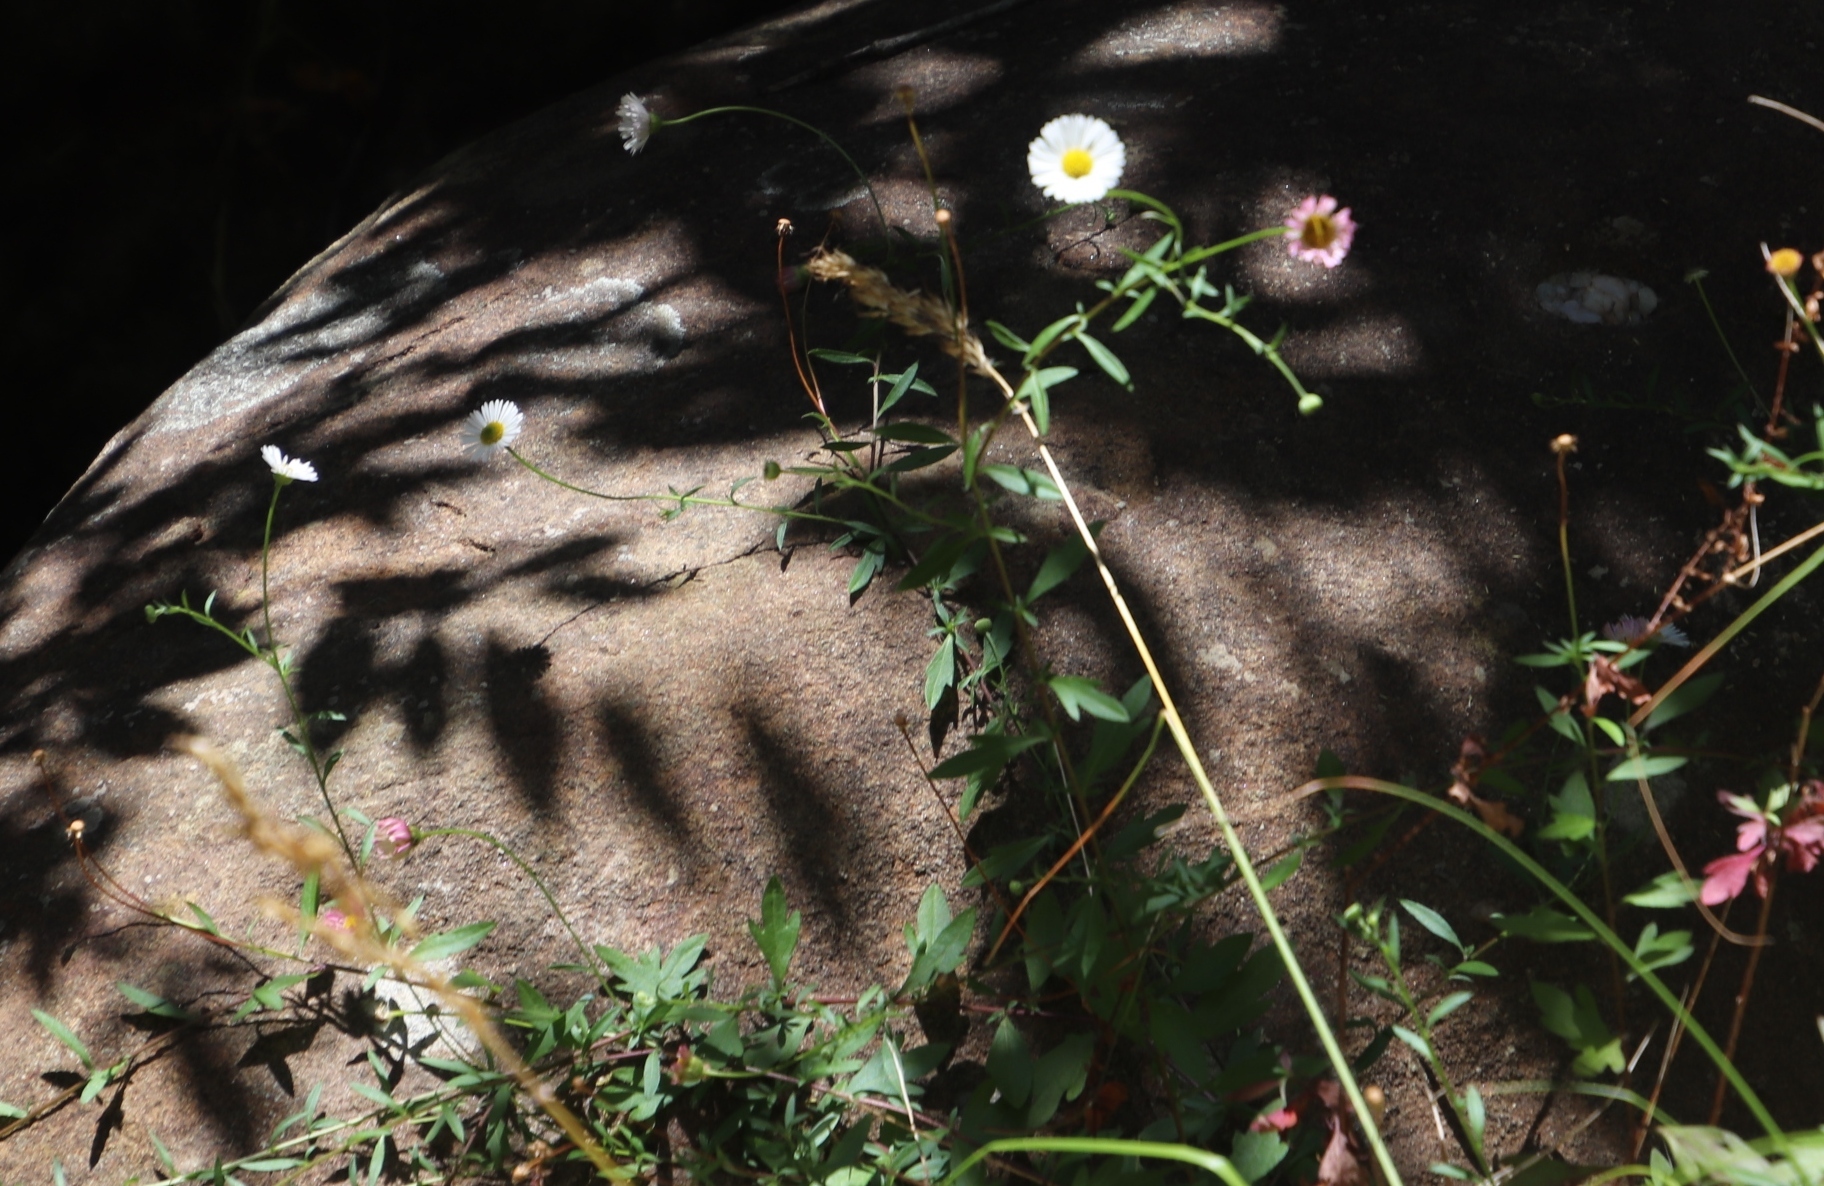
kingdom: Plantae
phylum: Tracheophyta
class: Magnoliopsida
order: Asterales
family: Asteraceae
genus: Erigeron
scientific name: Erigeron karvinskianus
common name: Mexican fleabane
